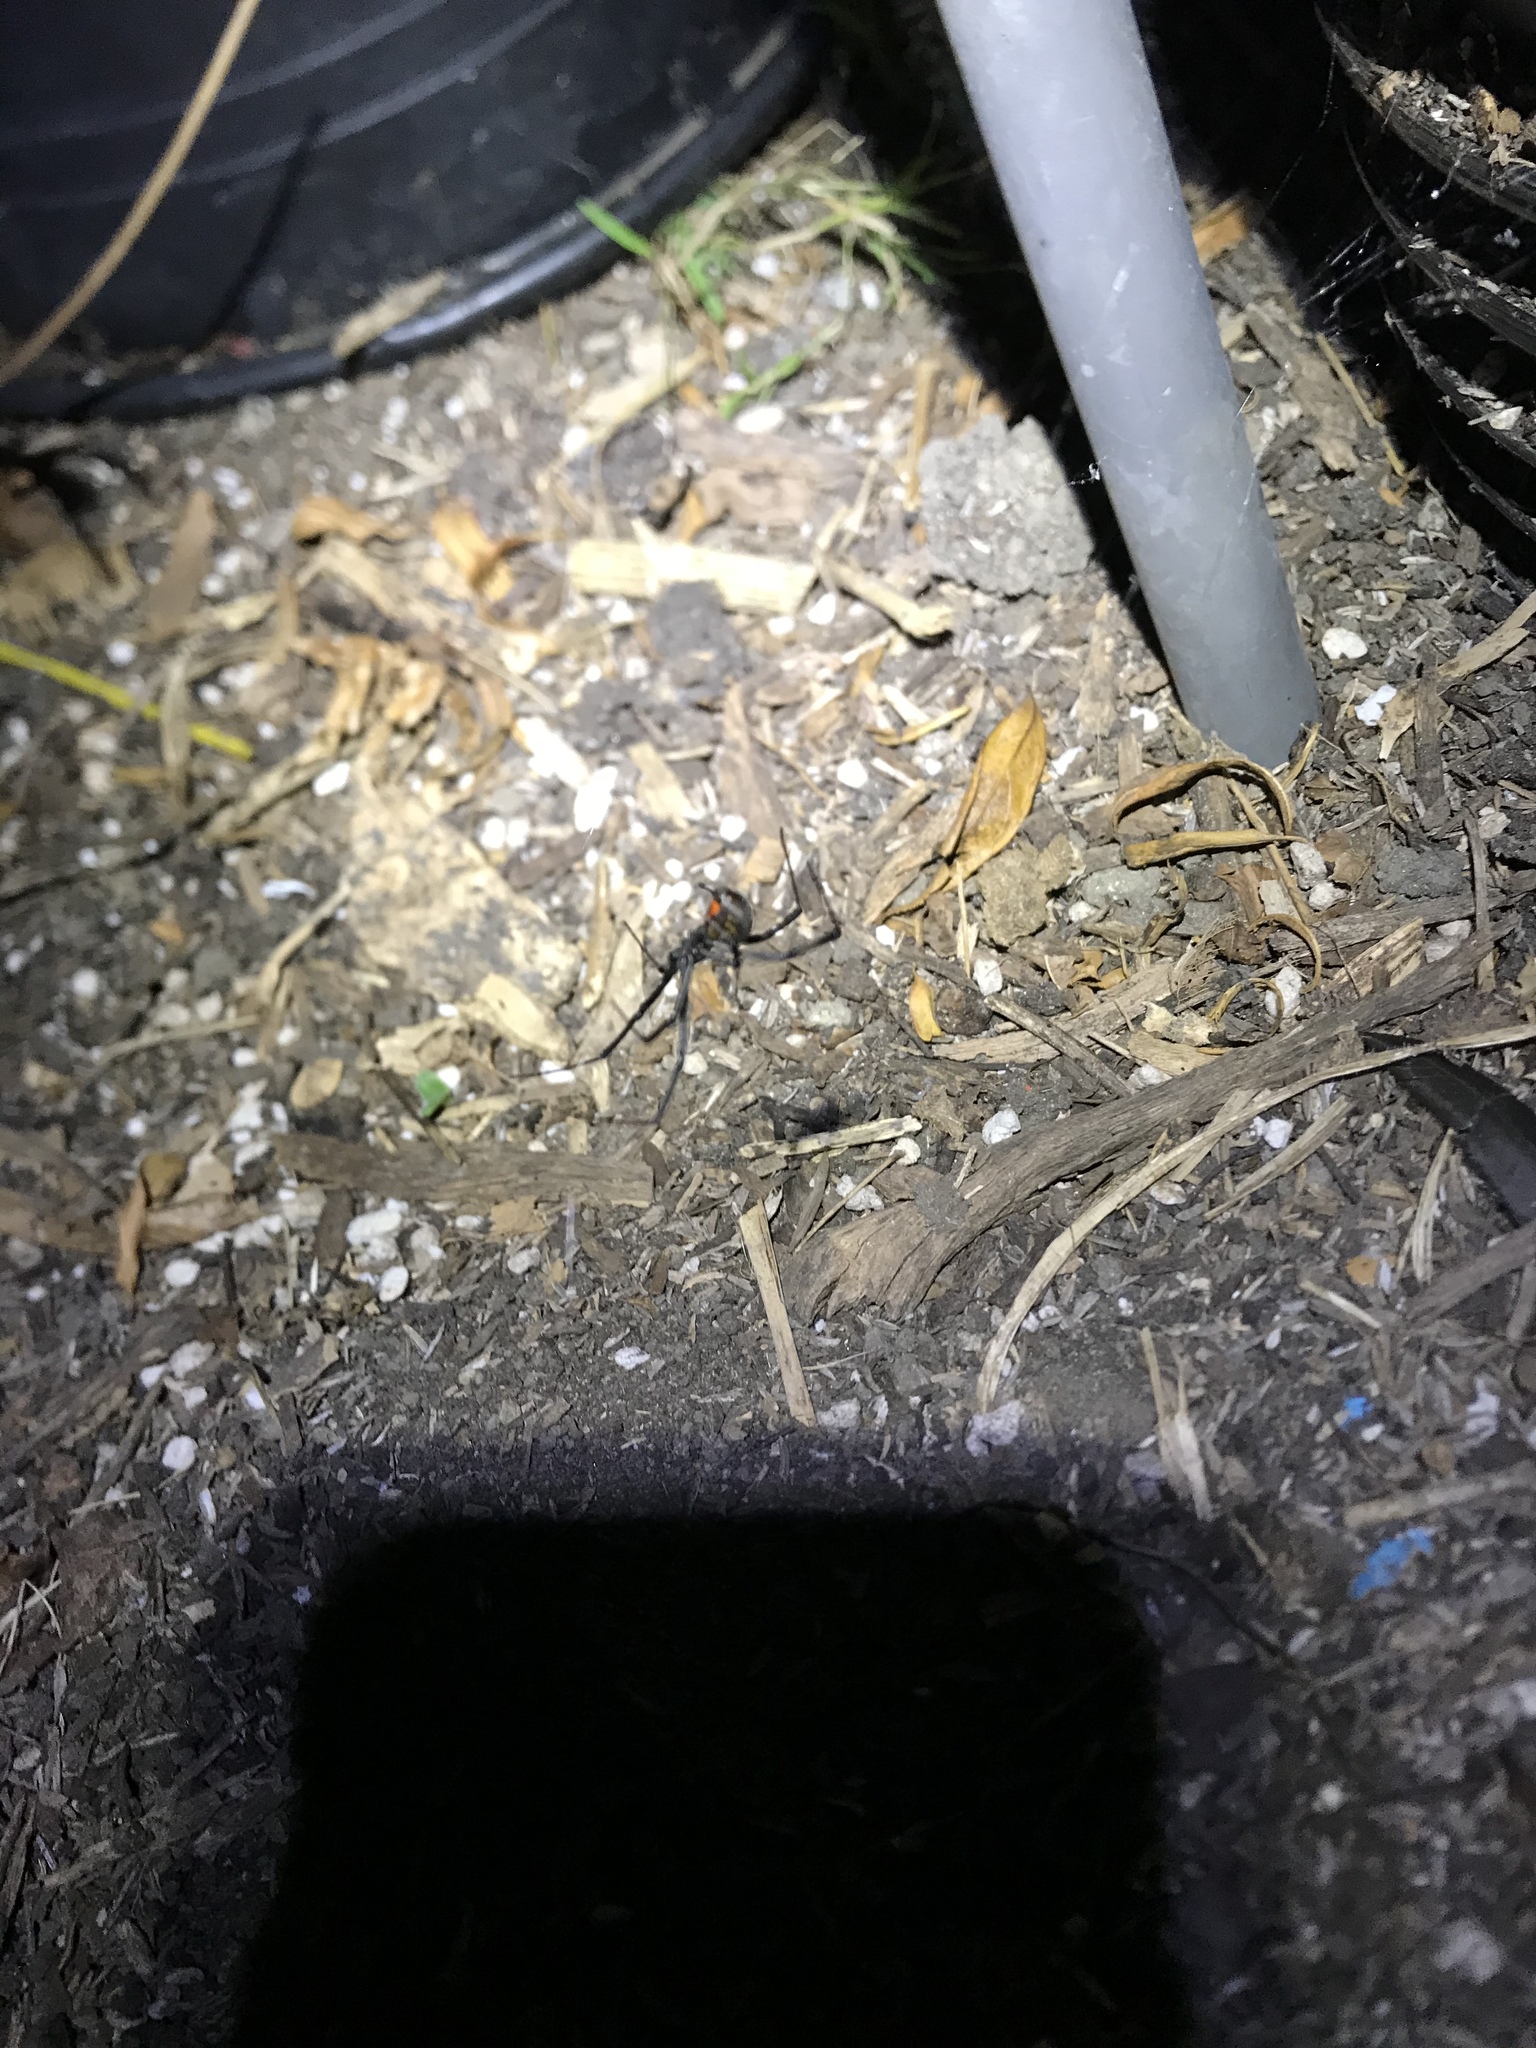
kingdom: Animalia
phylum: Arthropoda
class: Arachnida
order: Araneae
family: Theridiidae
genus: Latrodectus
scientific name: Latrodectus geometricus
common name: Brown widow spider
